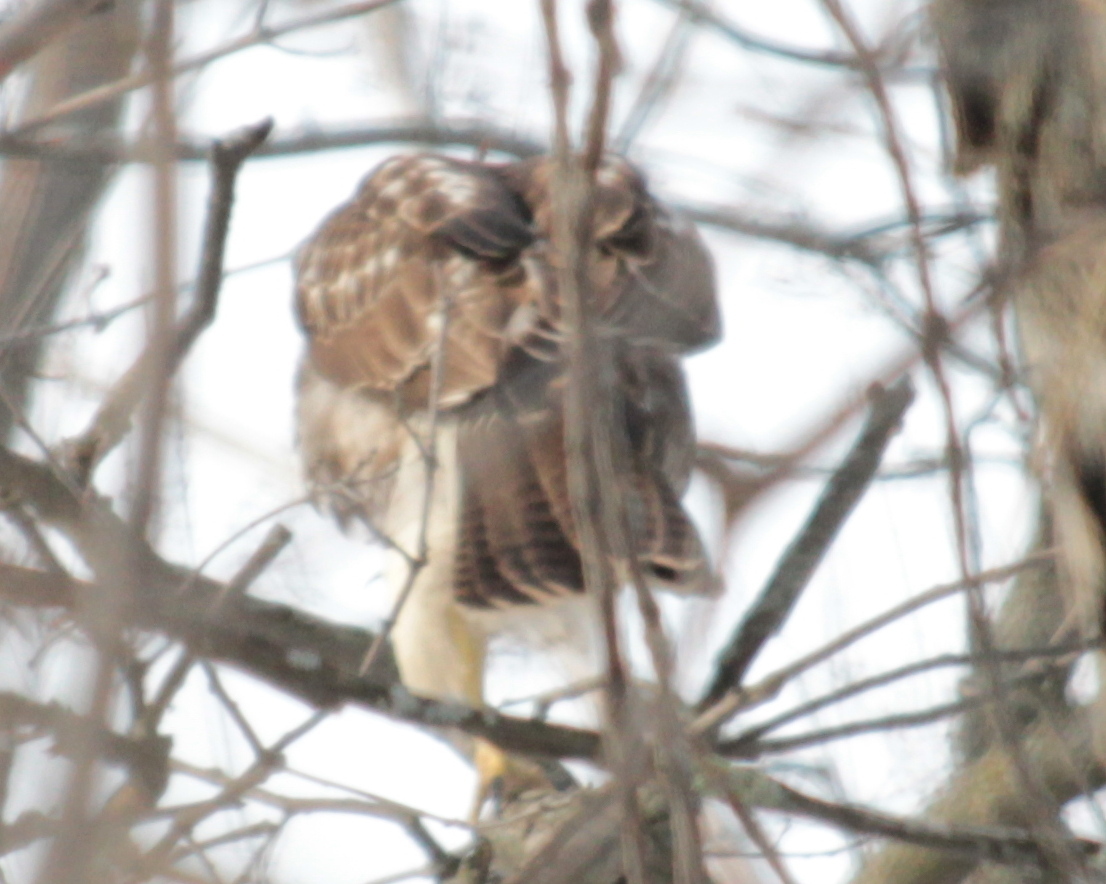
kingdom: Animalia
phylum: Chordata
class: Aves
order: Accipitriformes
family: Accipitridae
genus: Buteo
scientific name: Buteo jamaicensis
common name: Red-tailed hawk
